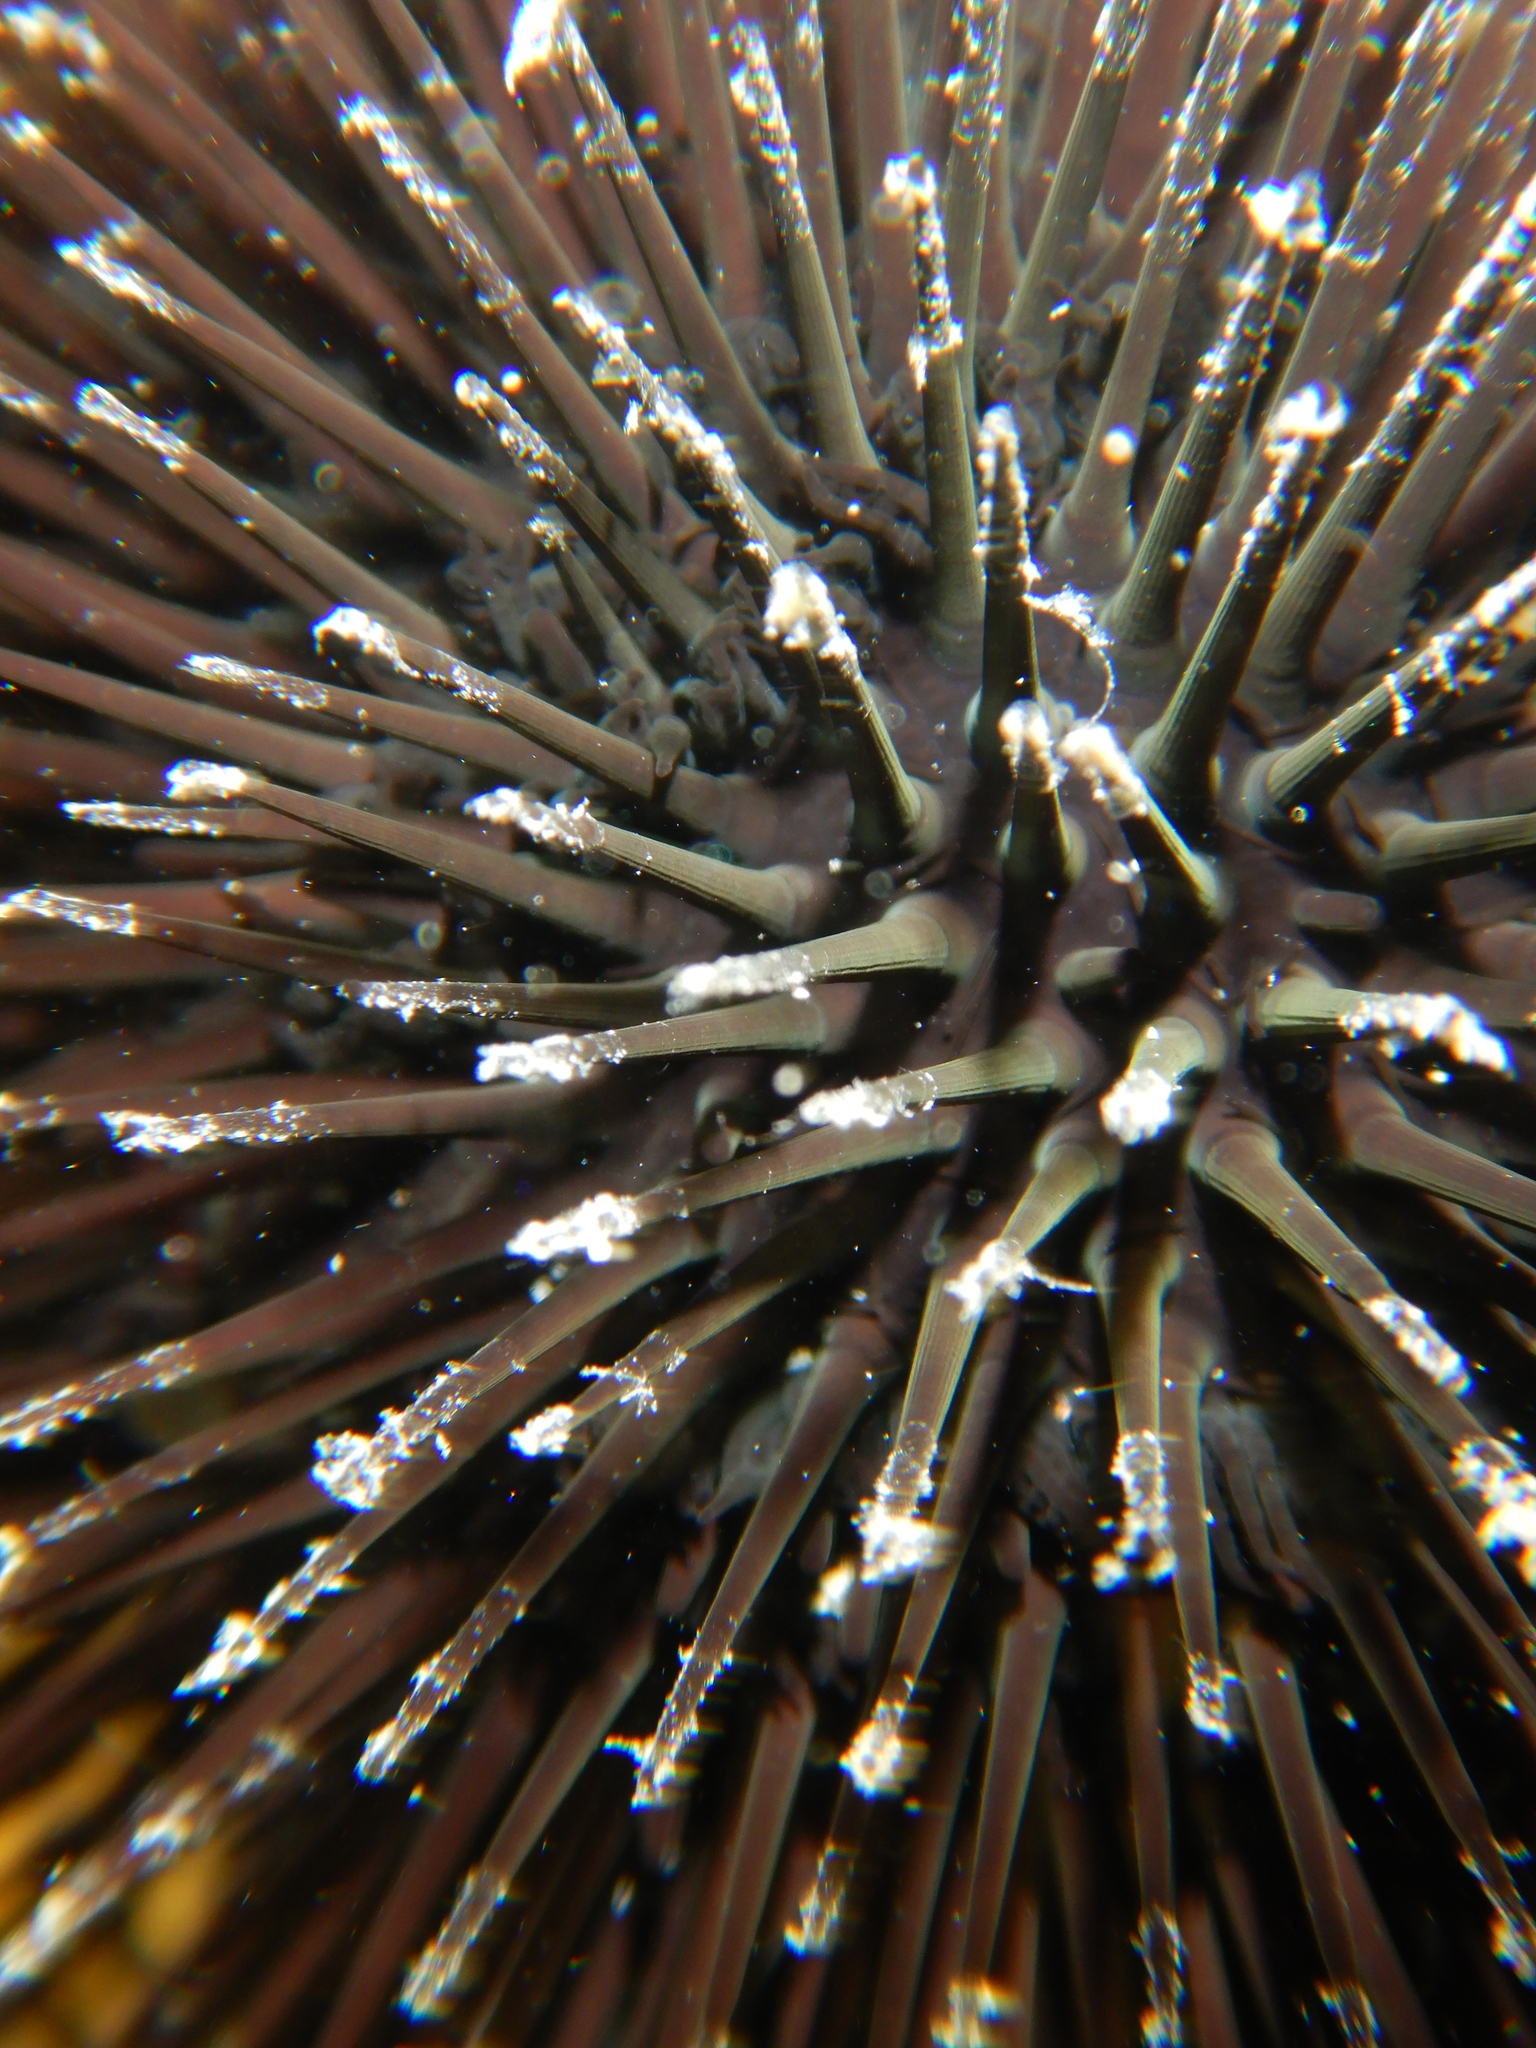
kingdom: Animalia
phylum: Echinodermata
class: Echinoidea
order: Arbacioida
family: Arbaciidae
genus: Arbacia
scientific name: Arbacia lixula
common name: Black sea urchin
